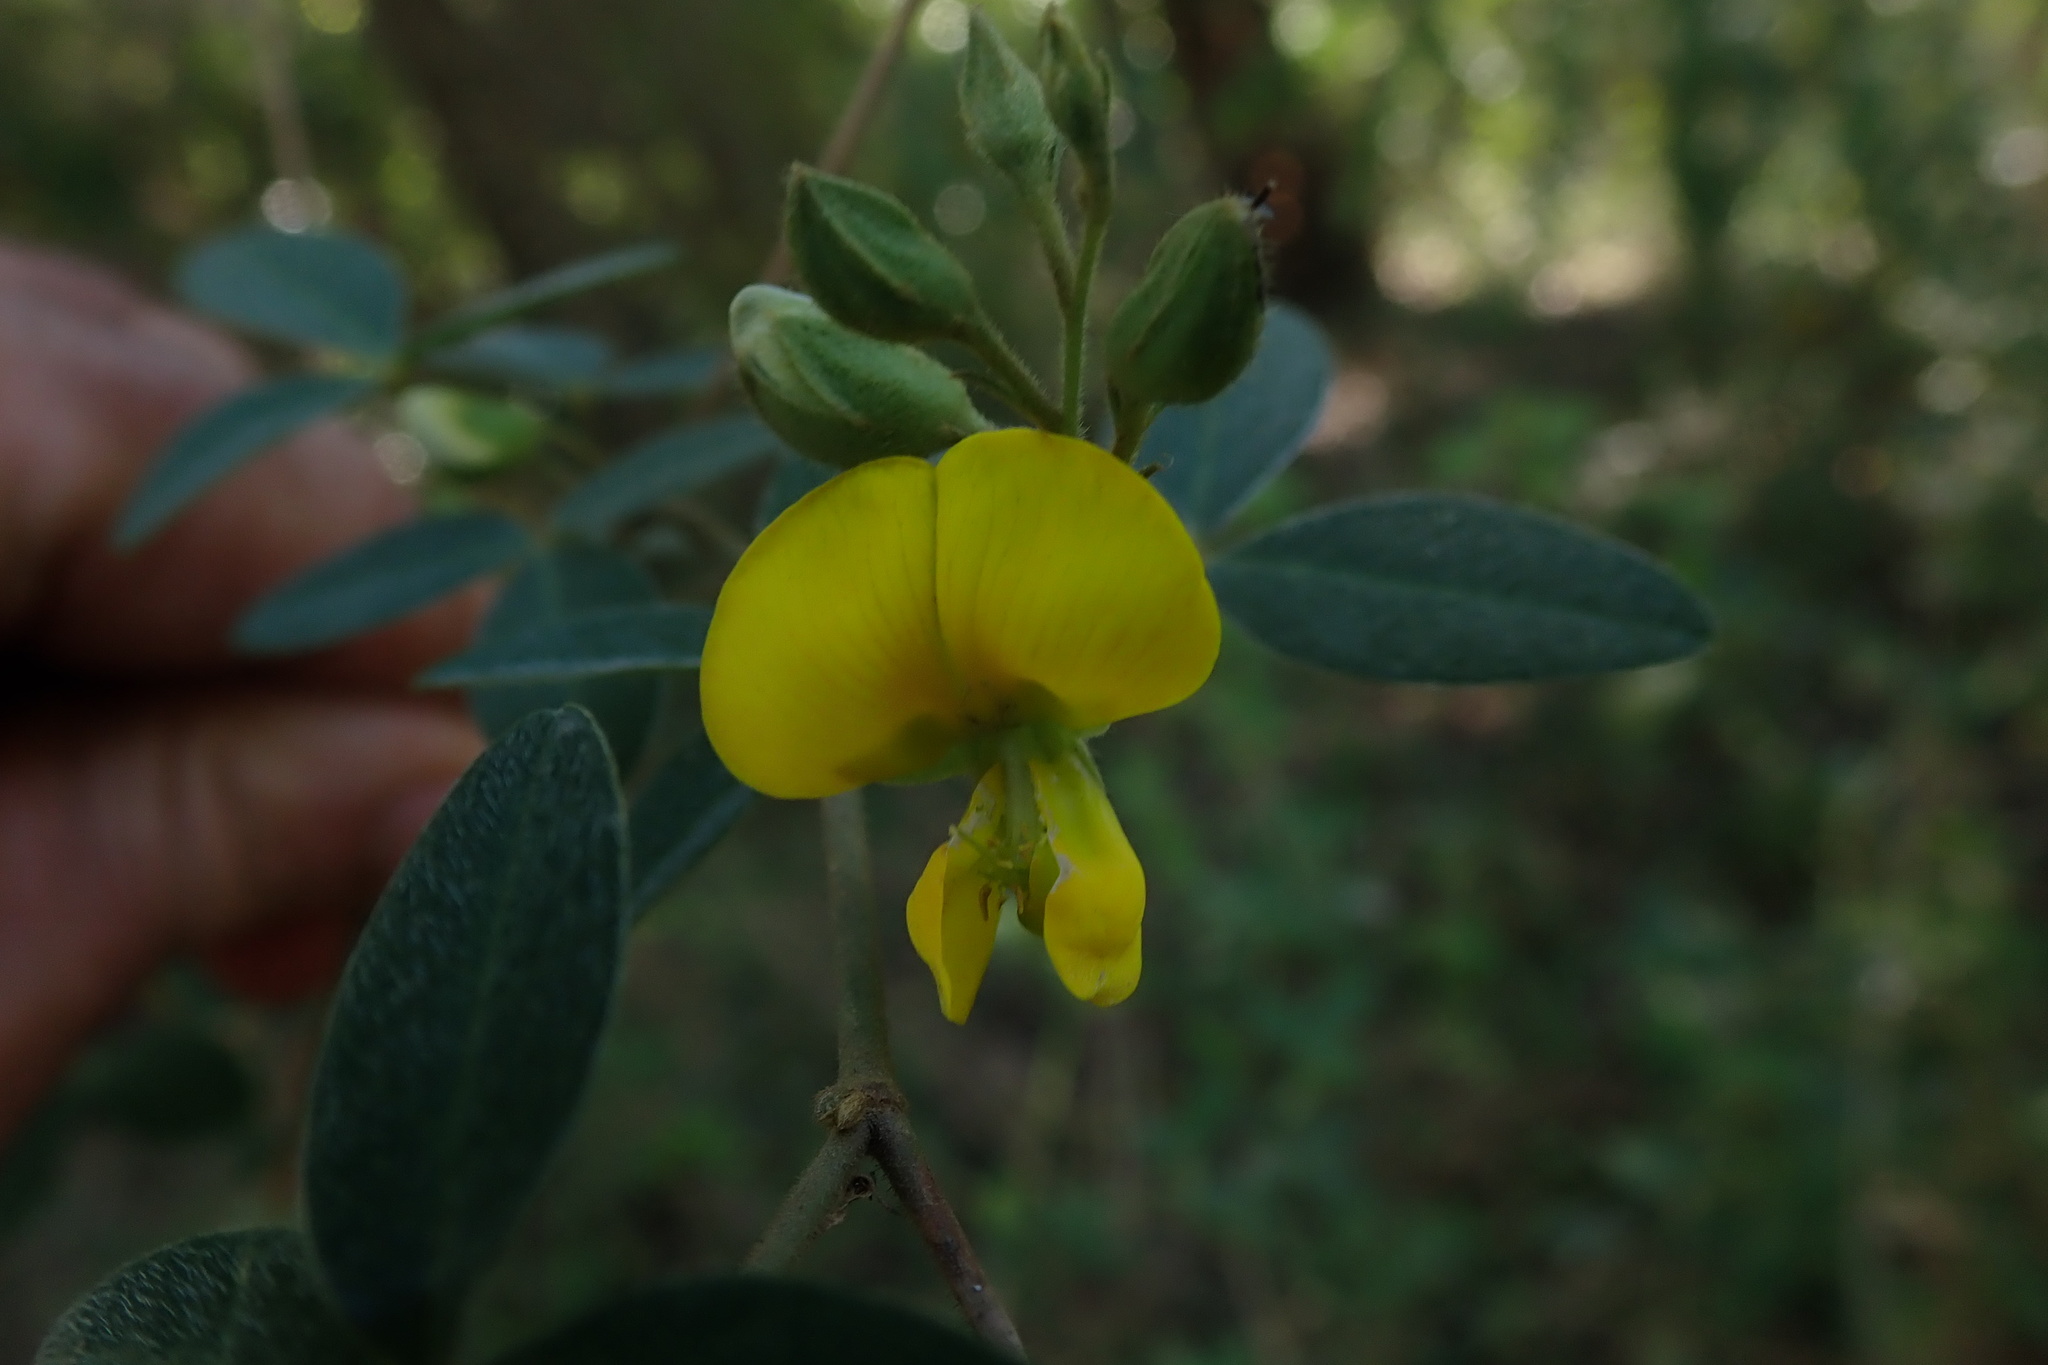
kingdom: Plantae
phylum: Tracheophyta
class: Magnoliopsida
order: Fabales
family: Fabaceae
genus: Crotalaria
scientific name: Crotalaria monteiroi
